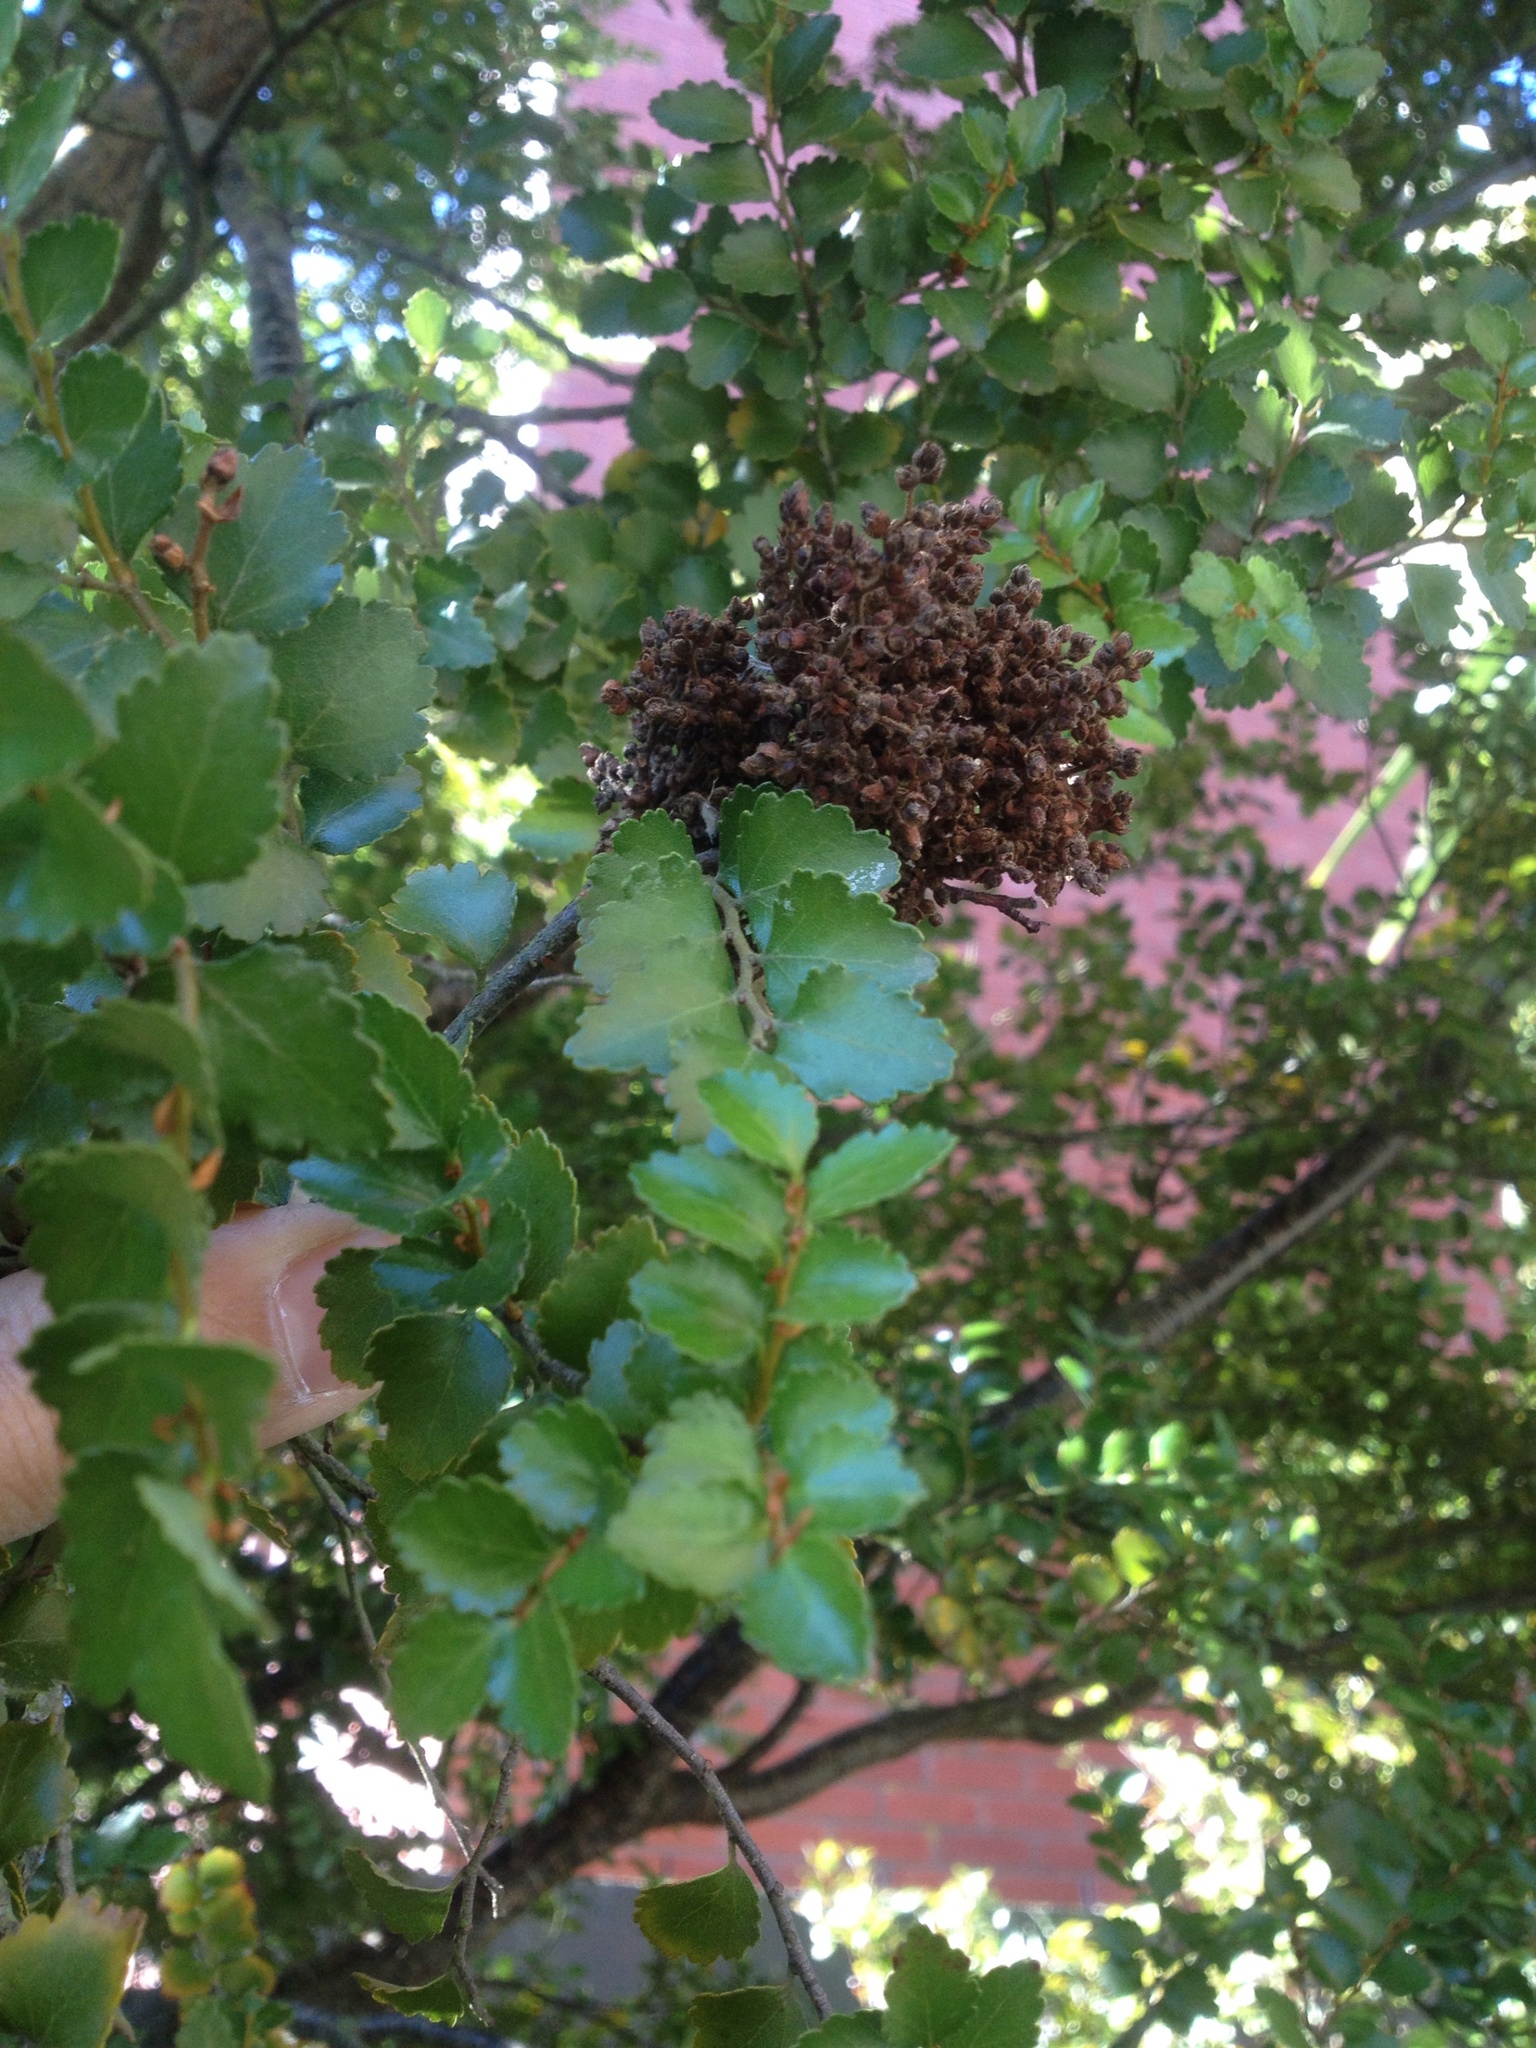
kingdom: Animalia
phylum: Arthropoda
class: Arachnida
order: Trombidiformes
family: Eriophyidae
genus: Cymoptus
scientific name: Cymoptus
